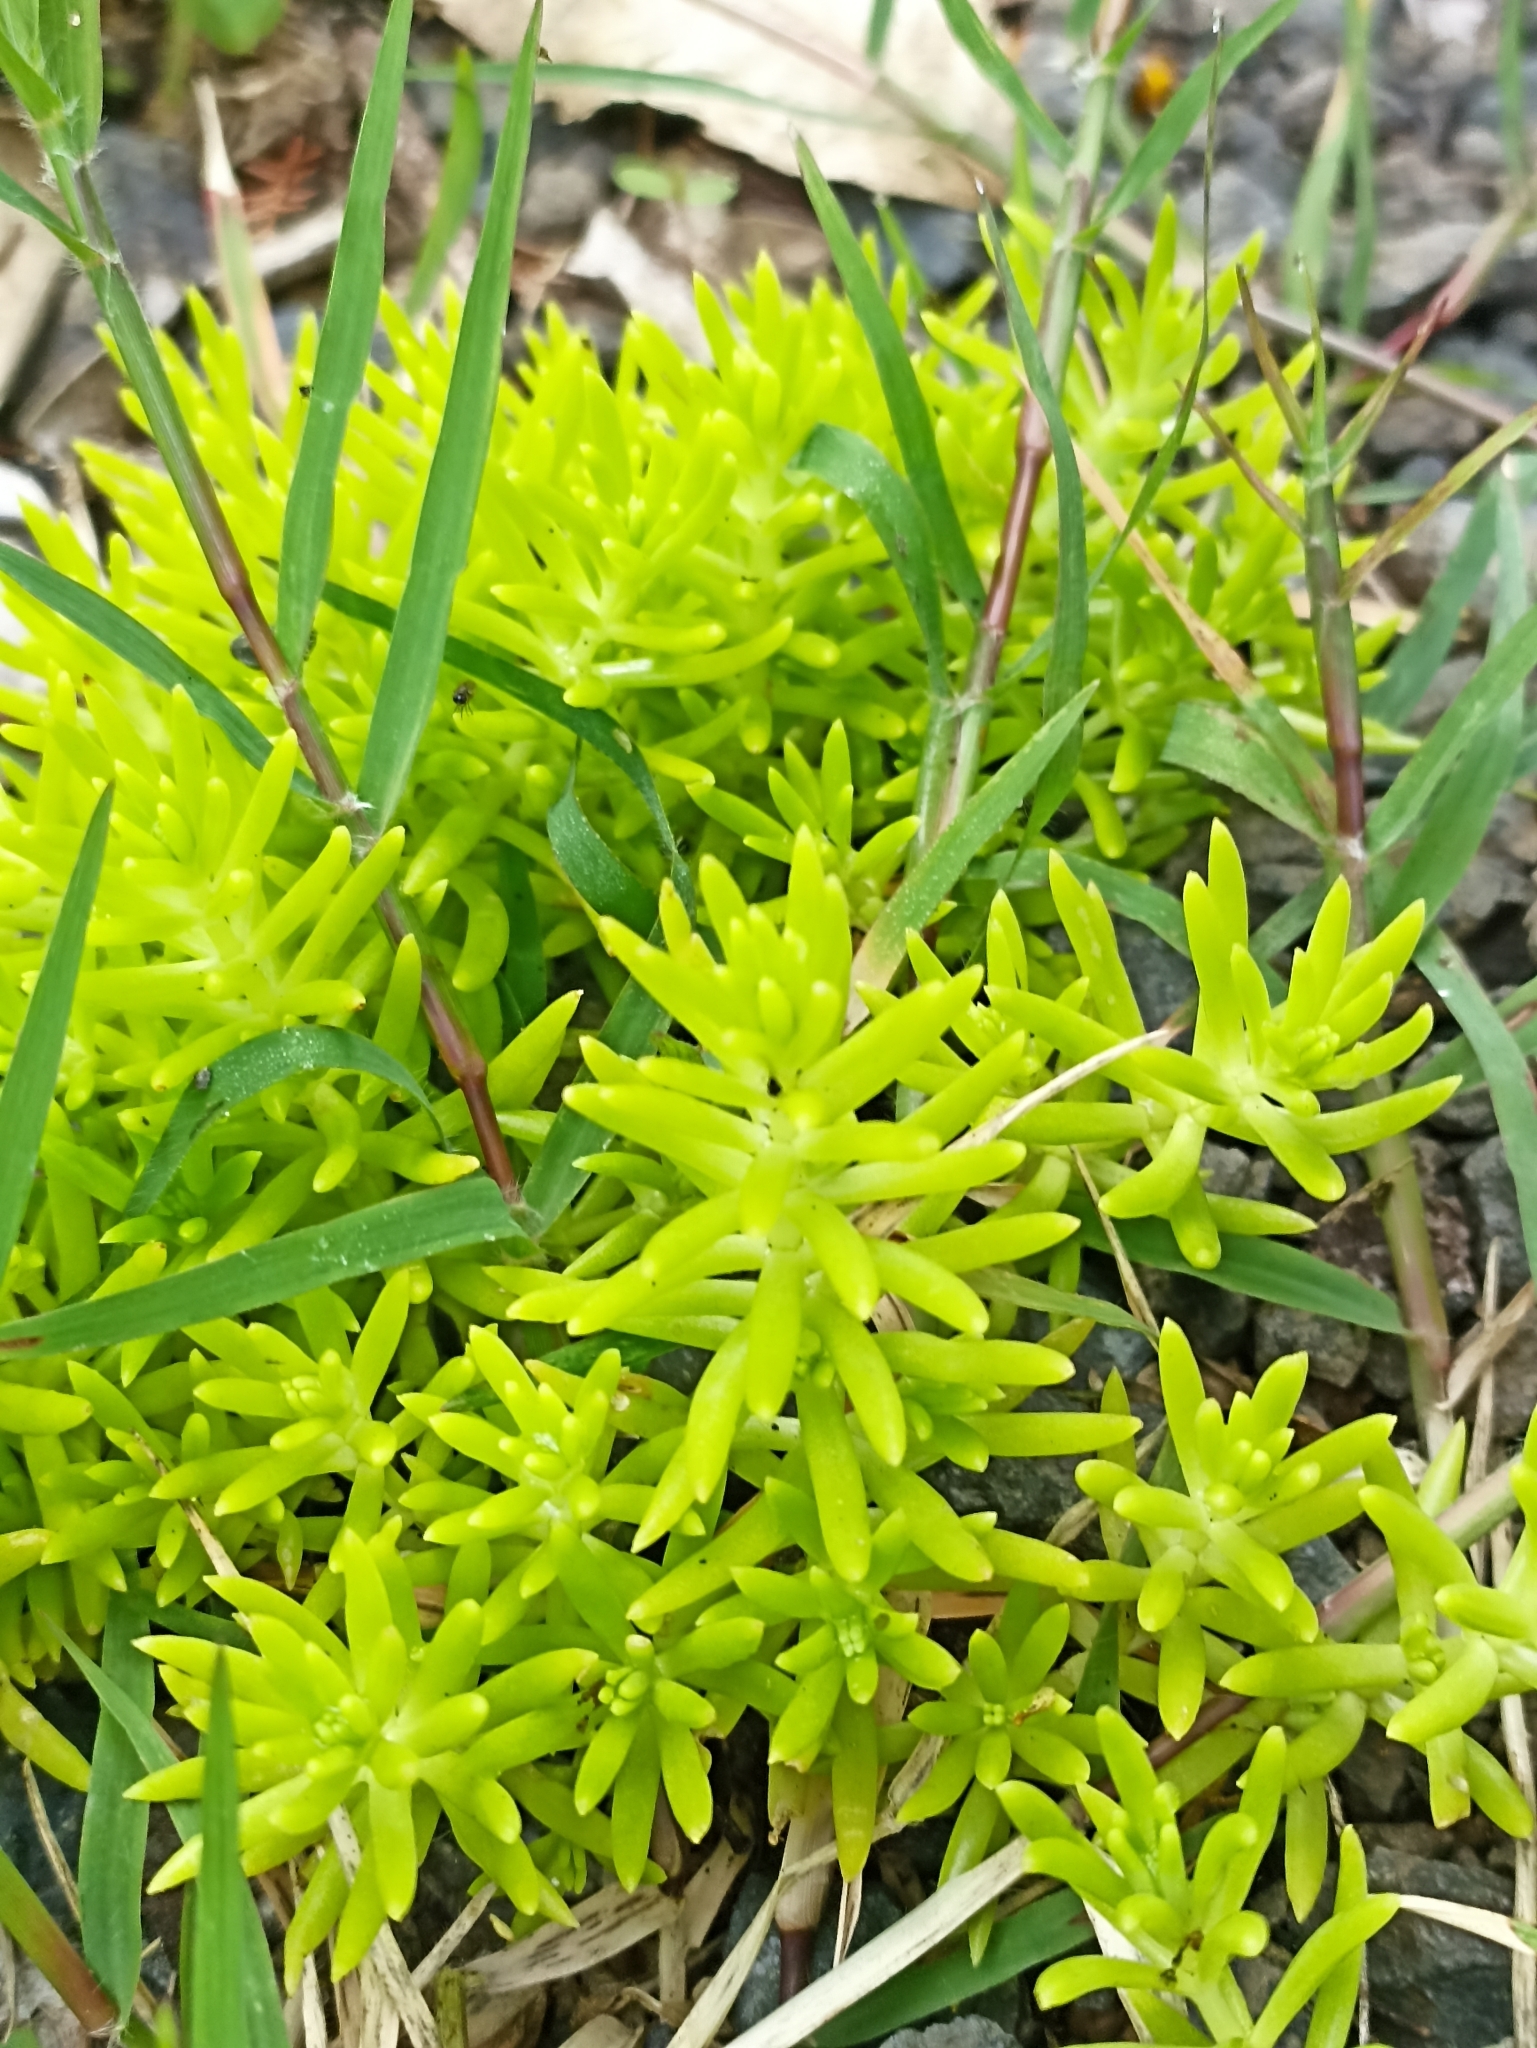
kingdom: Plantae
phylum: Tracheophyta
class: Magnoliopsida
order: Saxifragales
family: Crassulaceae
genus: Sedum
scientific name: Sedum mexicanum
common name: Mexican stonecrop
